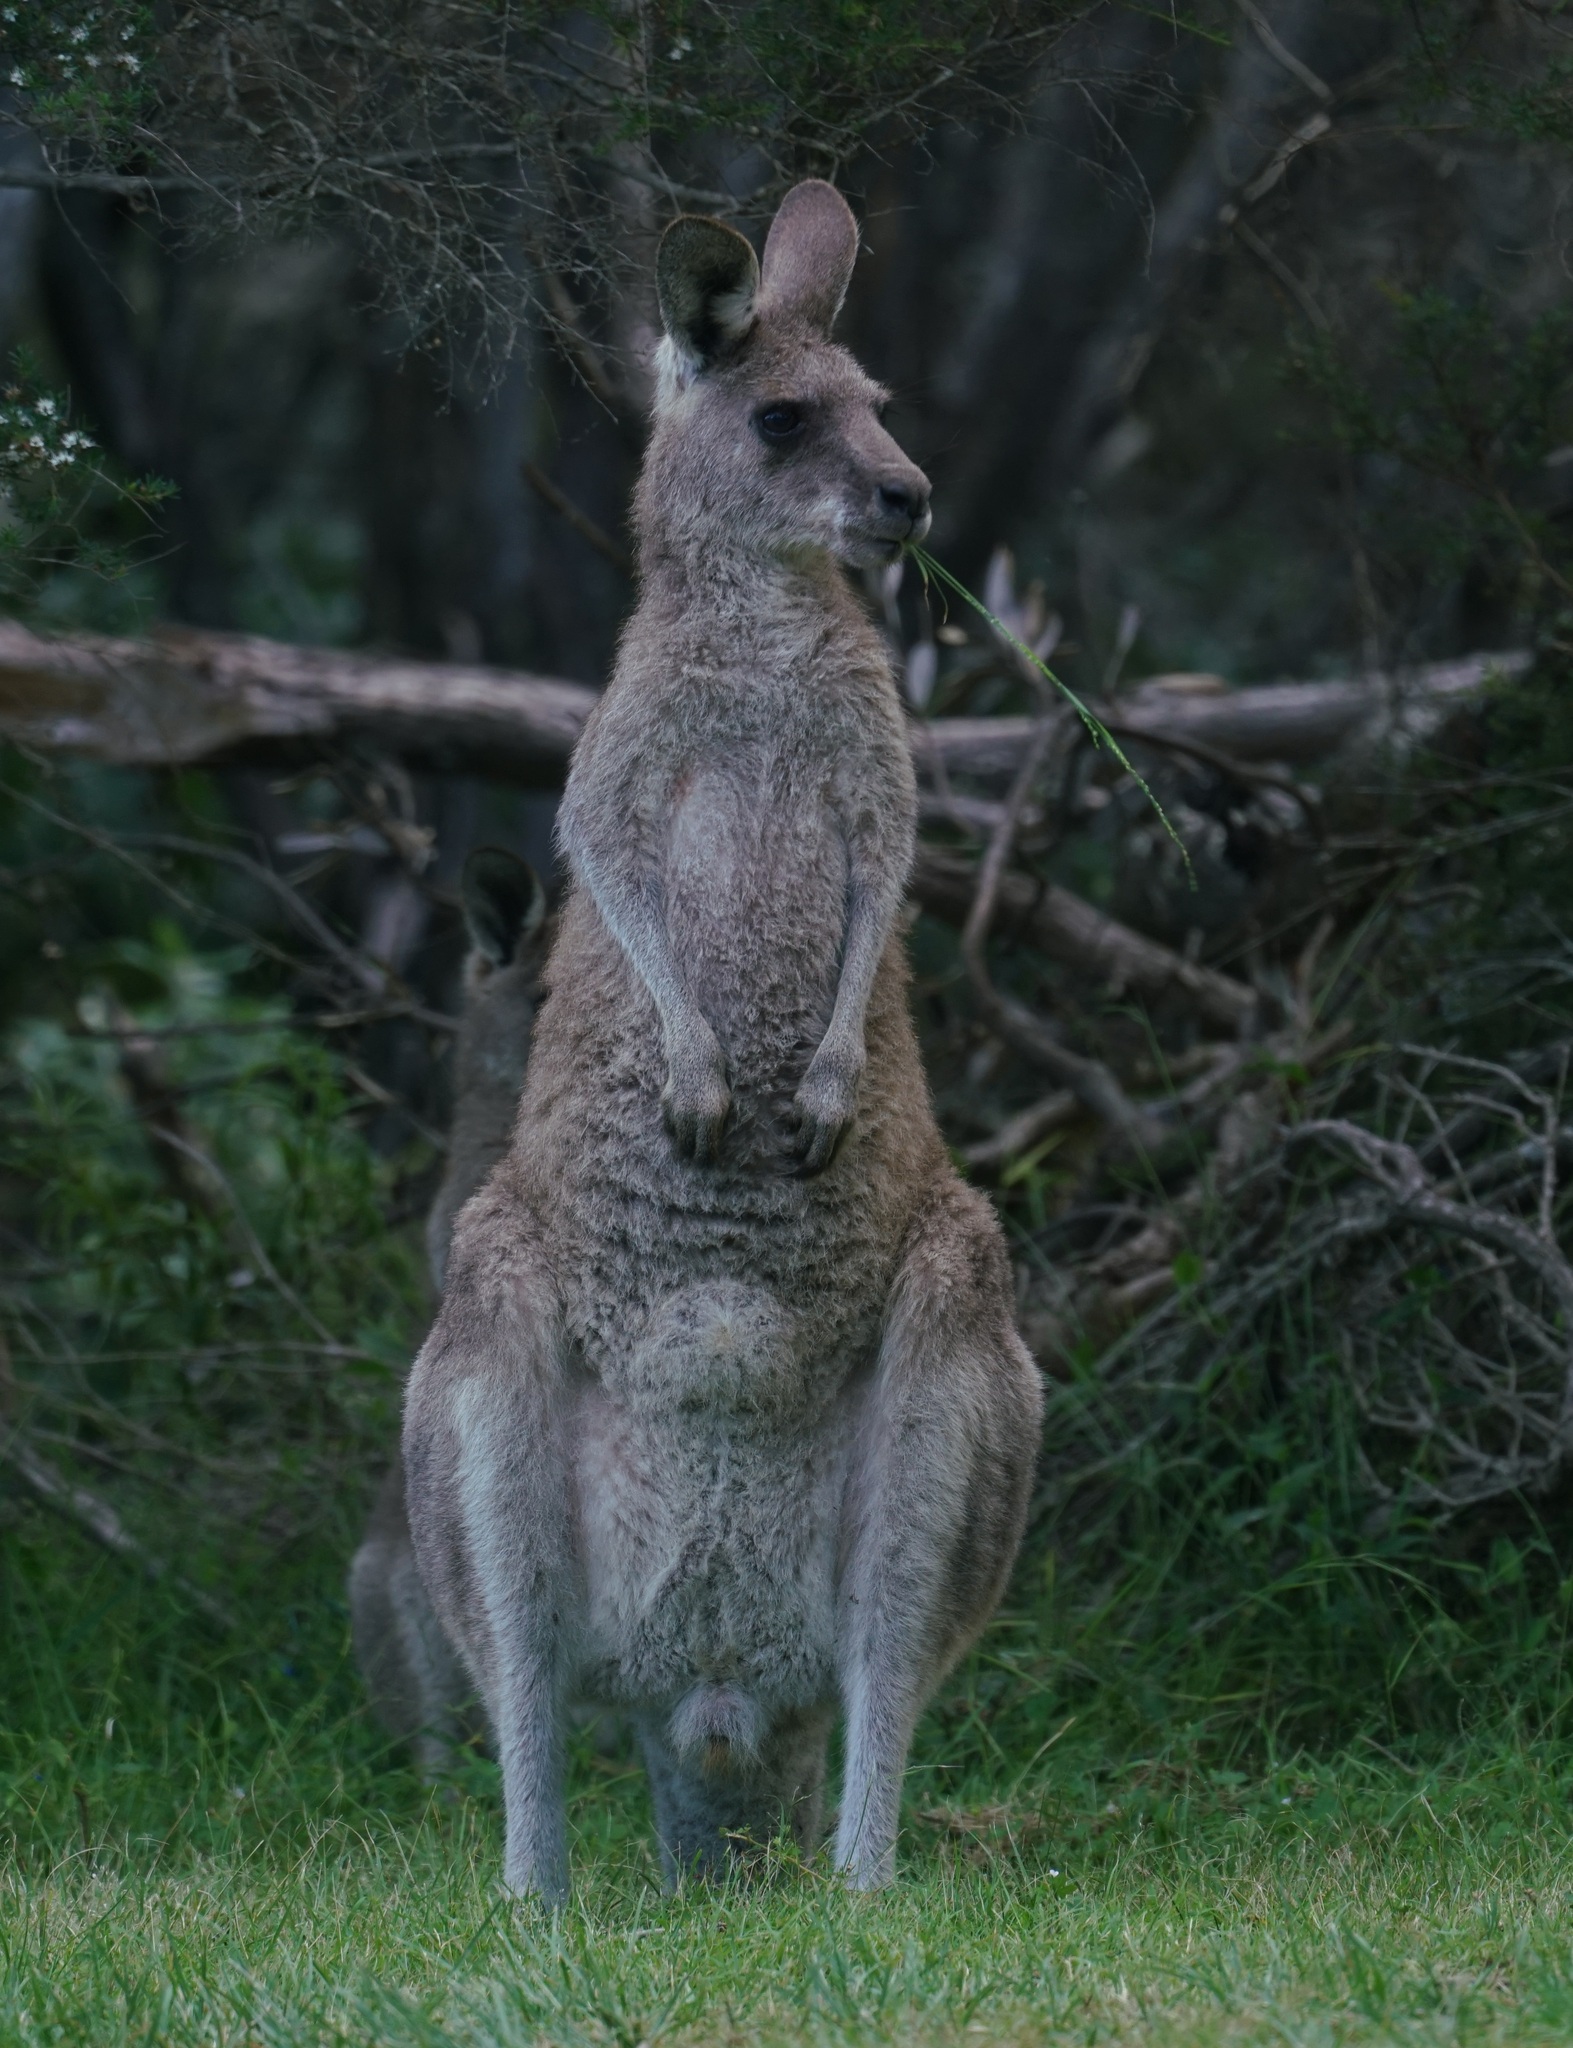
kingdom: Animalia
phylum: Chordata
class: Mammalia
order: Diprotodontia
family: Macropodidae
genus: Macropus
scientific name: Macropus giganteus
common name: Eastern grey kangaroo
